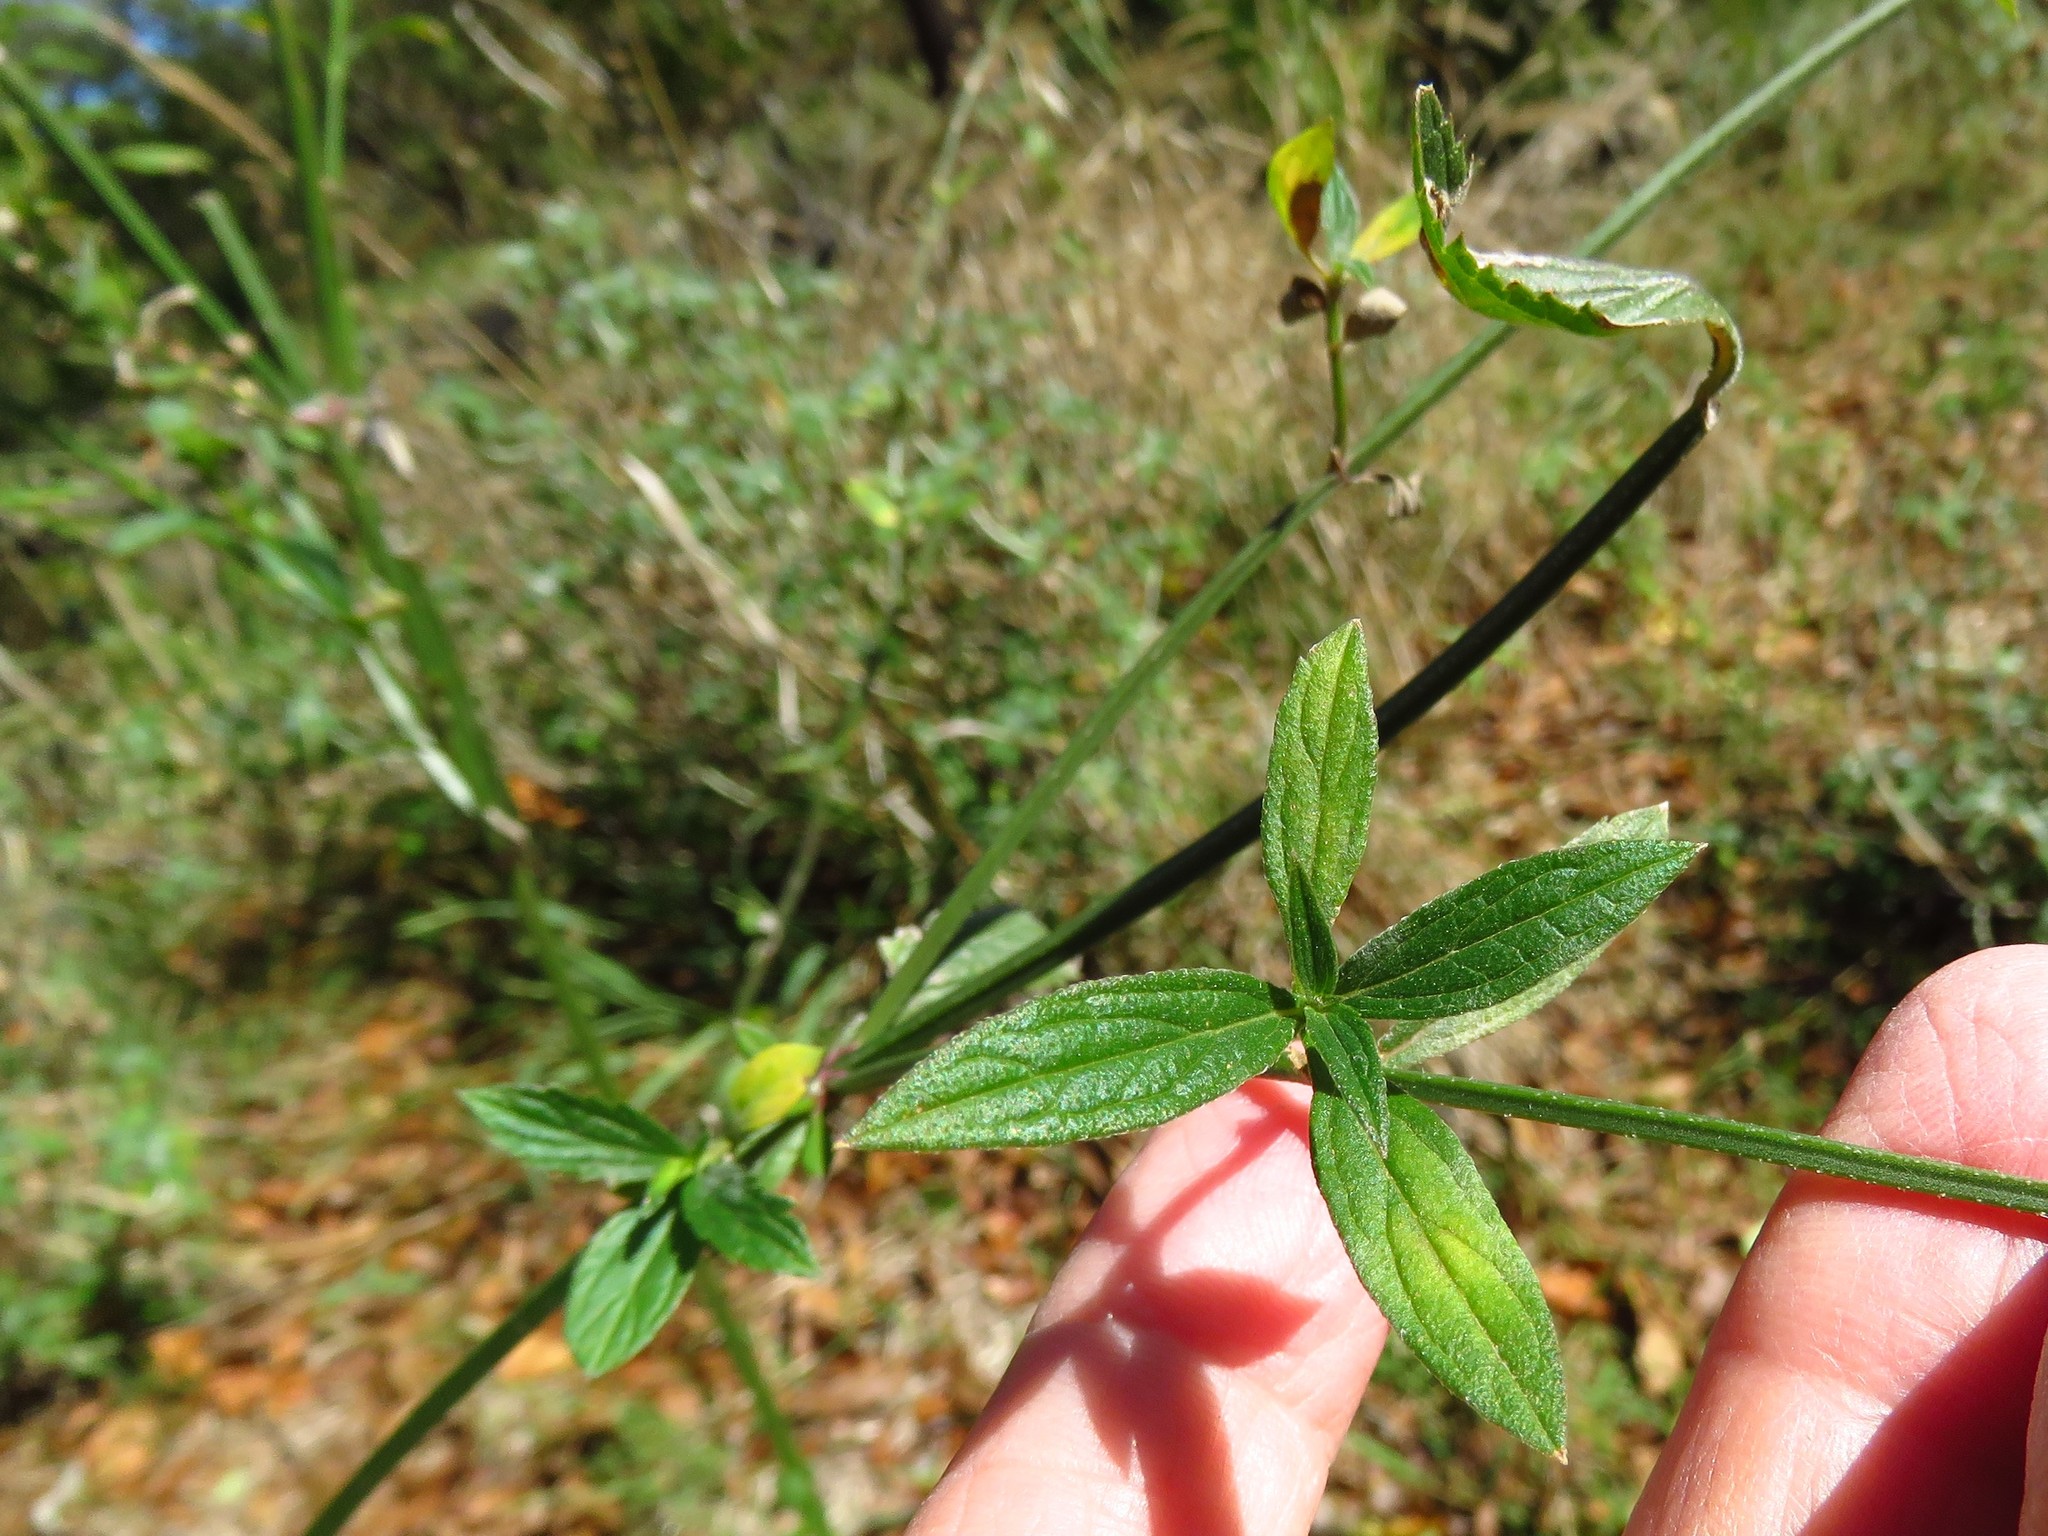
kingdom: Plantae
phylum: Tracheophyta
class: Magnoliopsida
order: Lamiales
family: Verbenaceae
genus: Verbena
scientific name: Verbena brasiliensis
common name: Brazilian vervain
